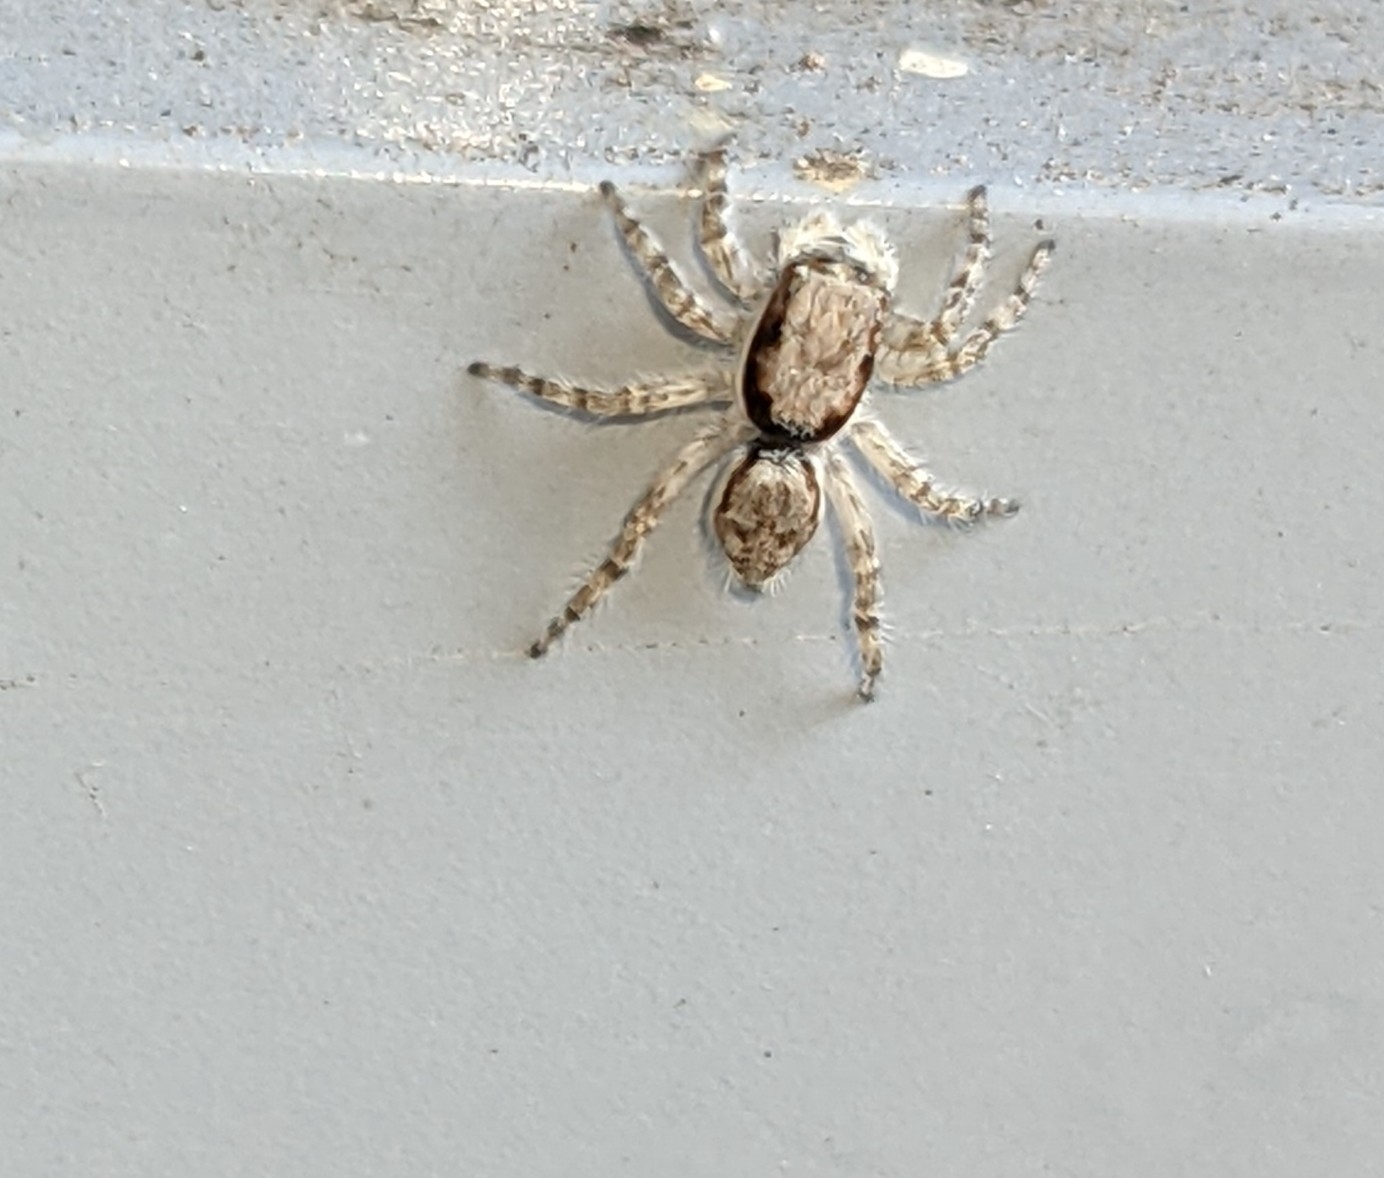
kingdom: Animalia
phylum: Arthropoda
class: Arachnida
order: Araneae
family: Salticidae
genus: Menemerus
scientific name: Menemerus bivittatus
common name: Gray wall jumper
